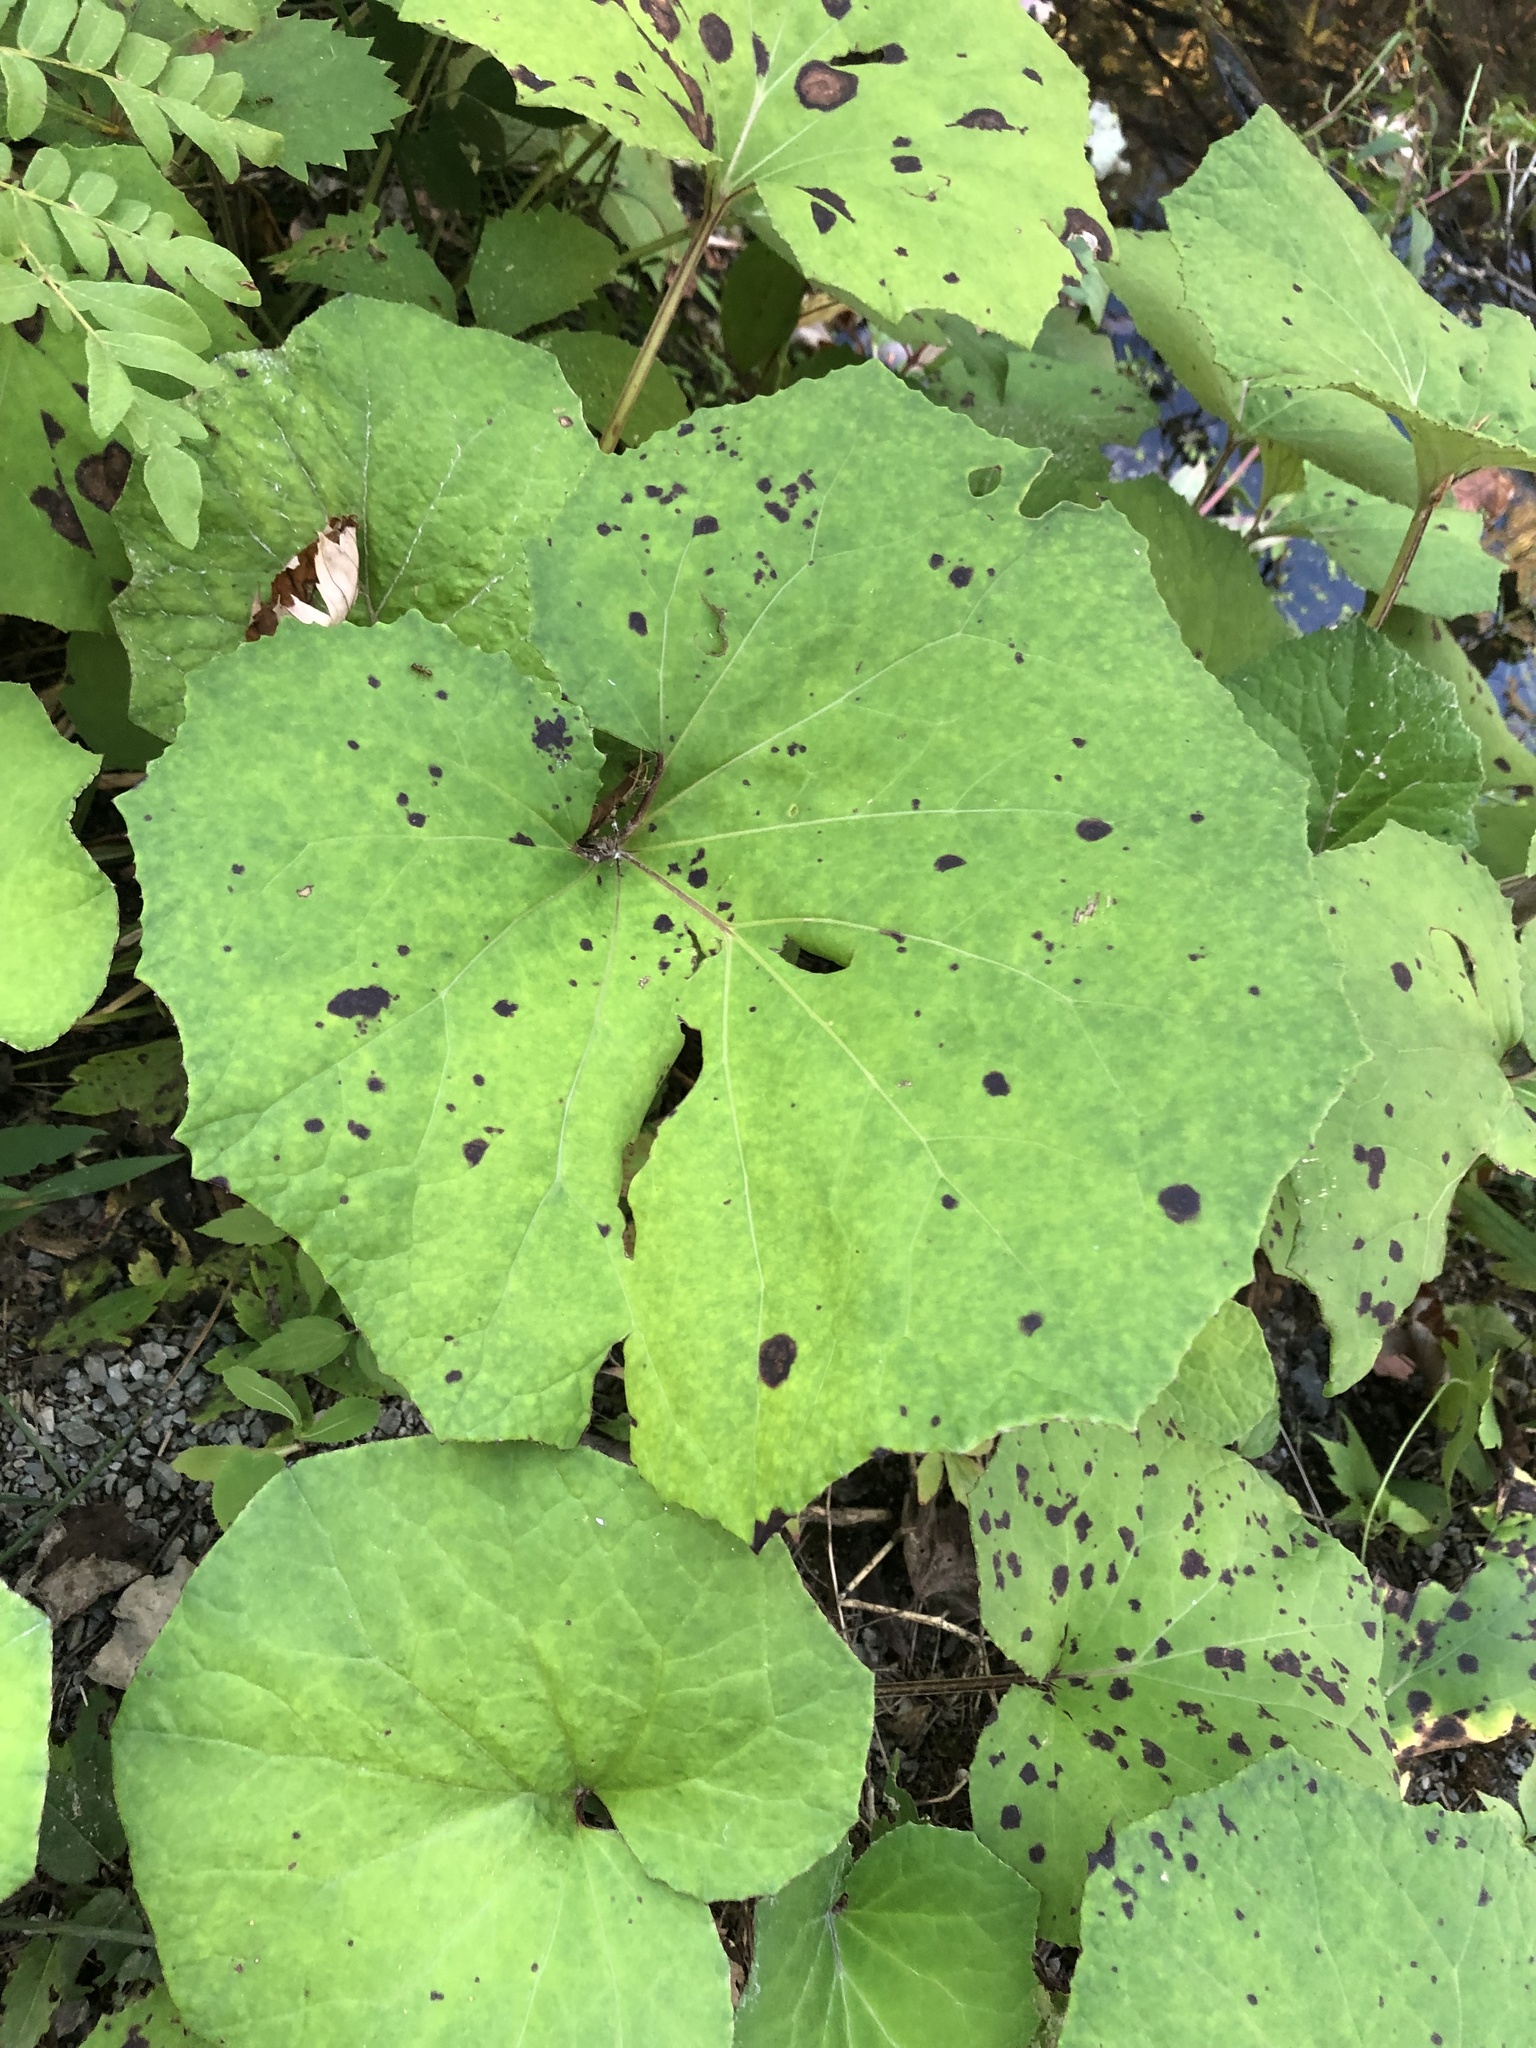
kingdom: Plantae
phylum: Tracheophyta
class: Magnoliopsida
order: Asterales
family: Asteraceae
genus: Tussilago
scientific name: Tussilago farfara
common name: Coltsfoot
